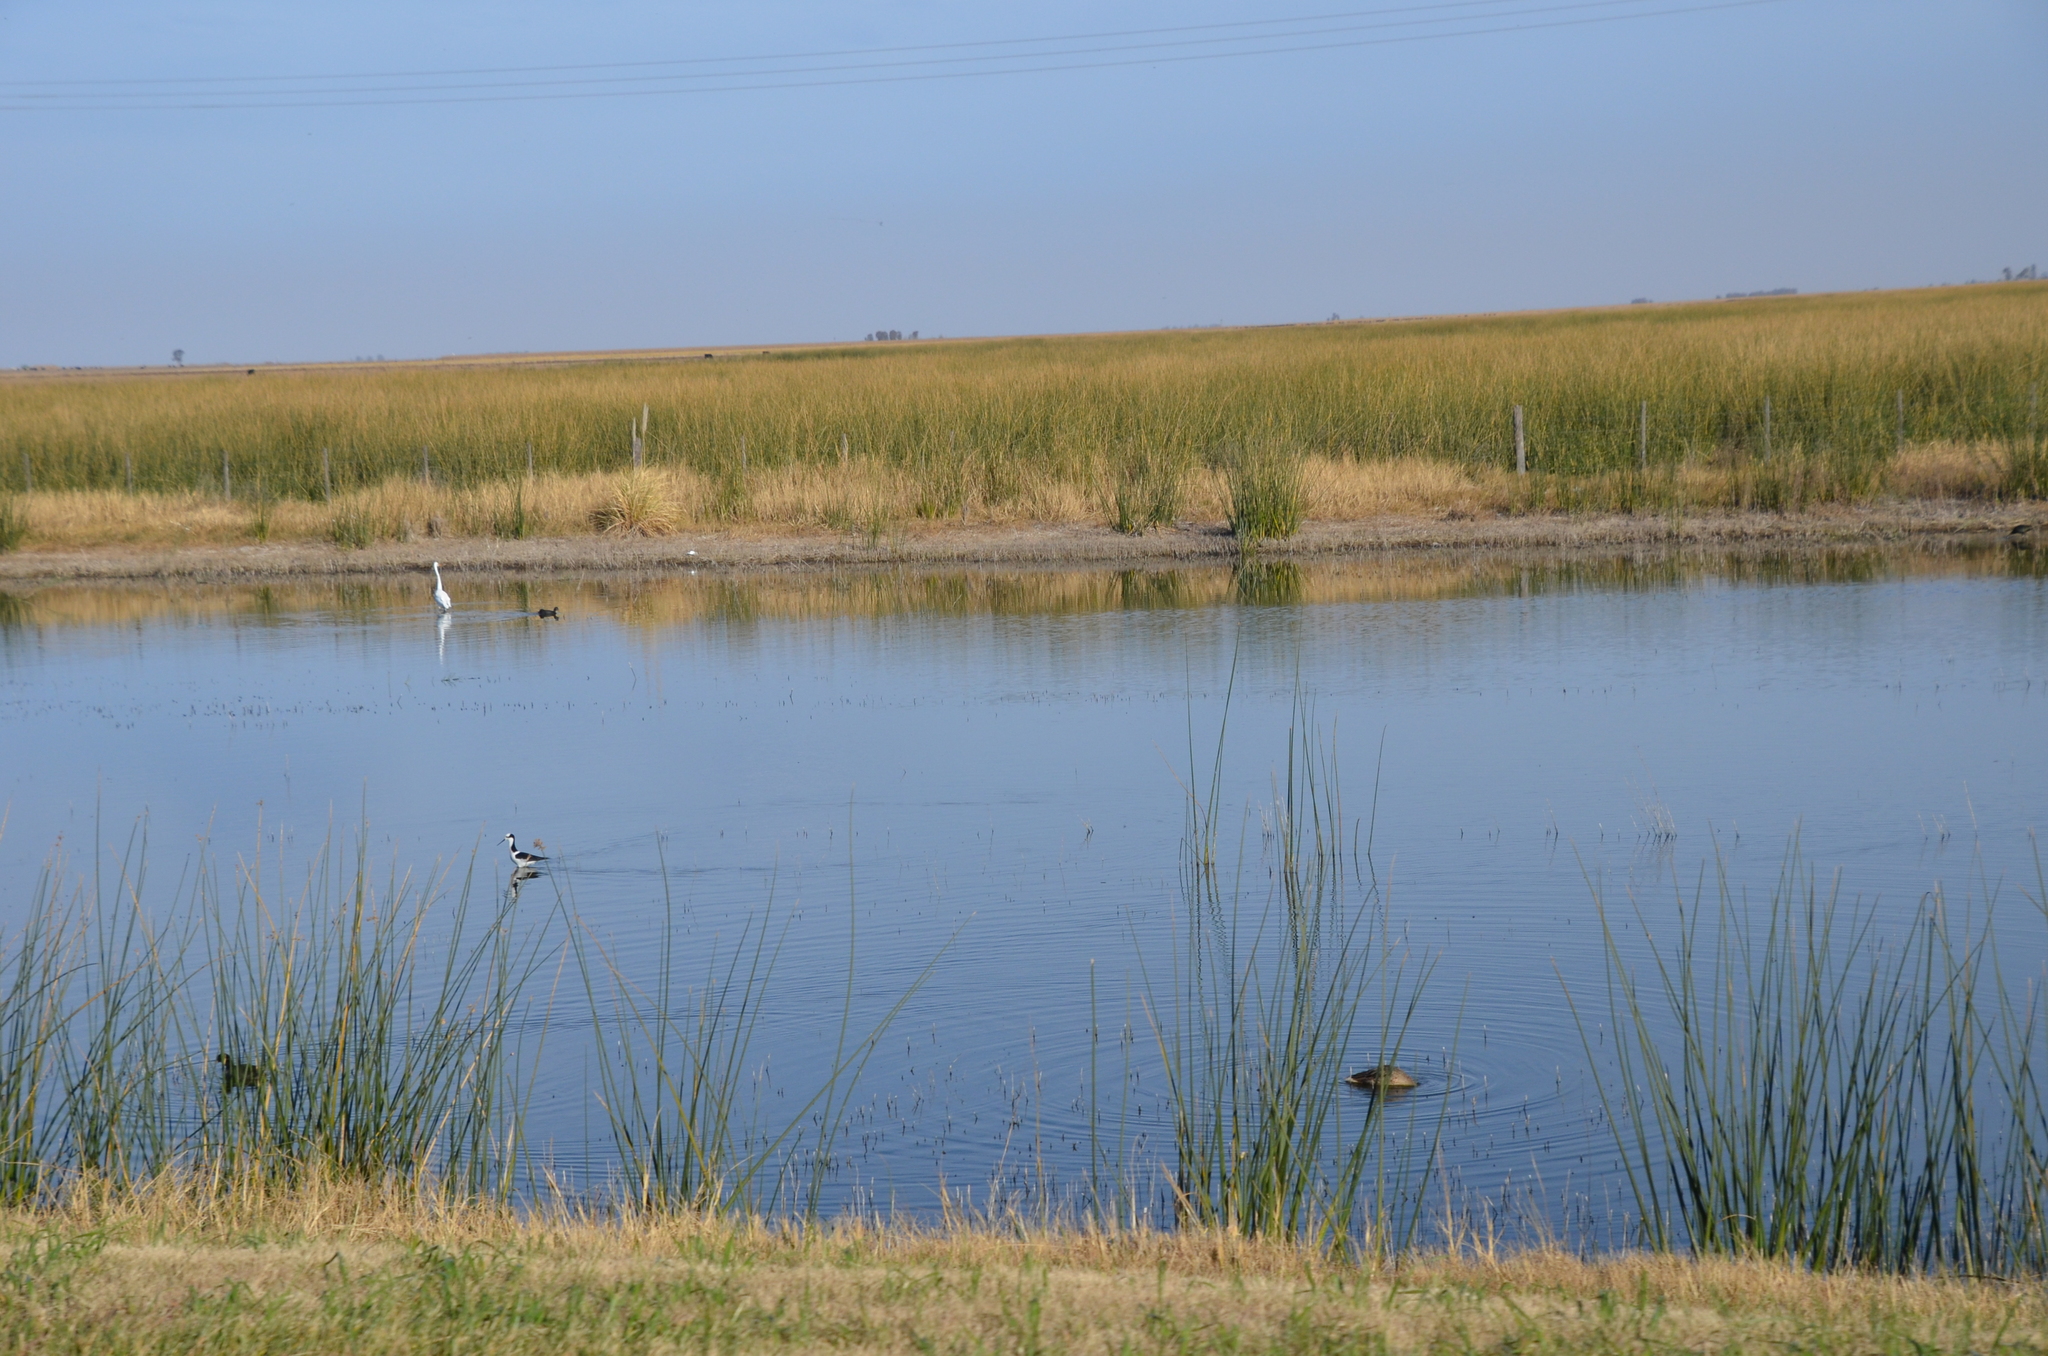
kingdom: Animalia
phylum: Chordata
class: Aves
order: Charadriiformes
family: Recurvirostridae
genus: Himantopus
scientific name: Himantopus mexicanus
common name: Black-necked stilt
